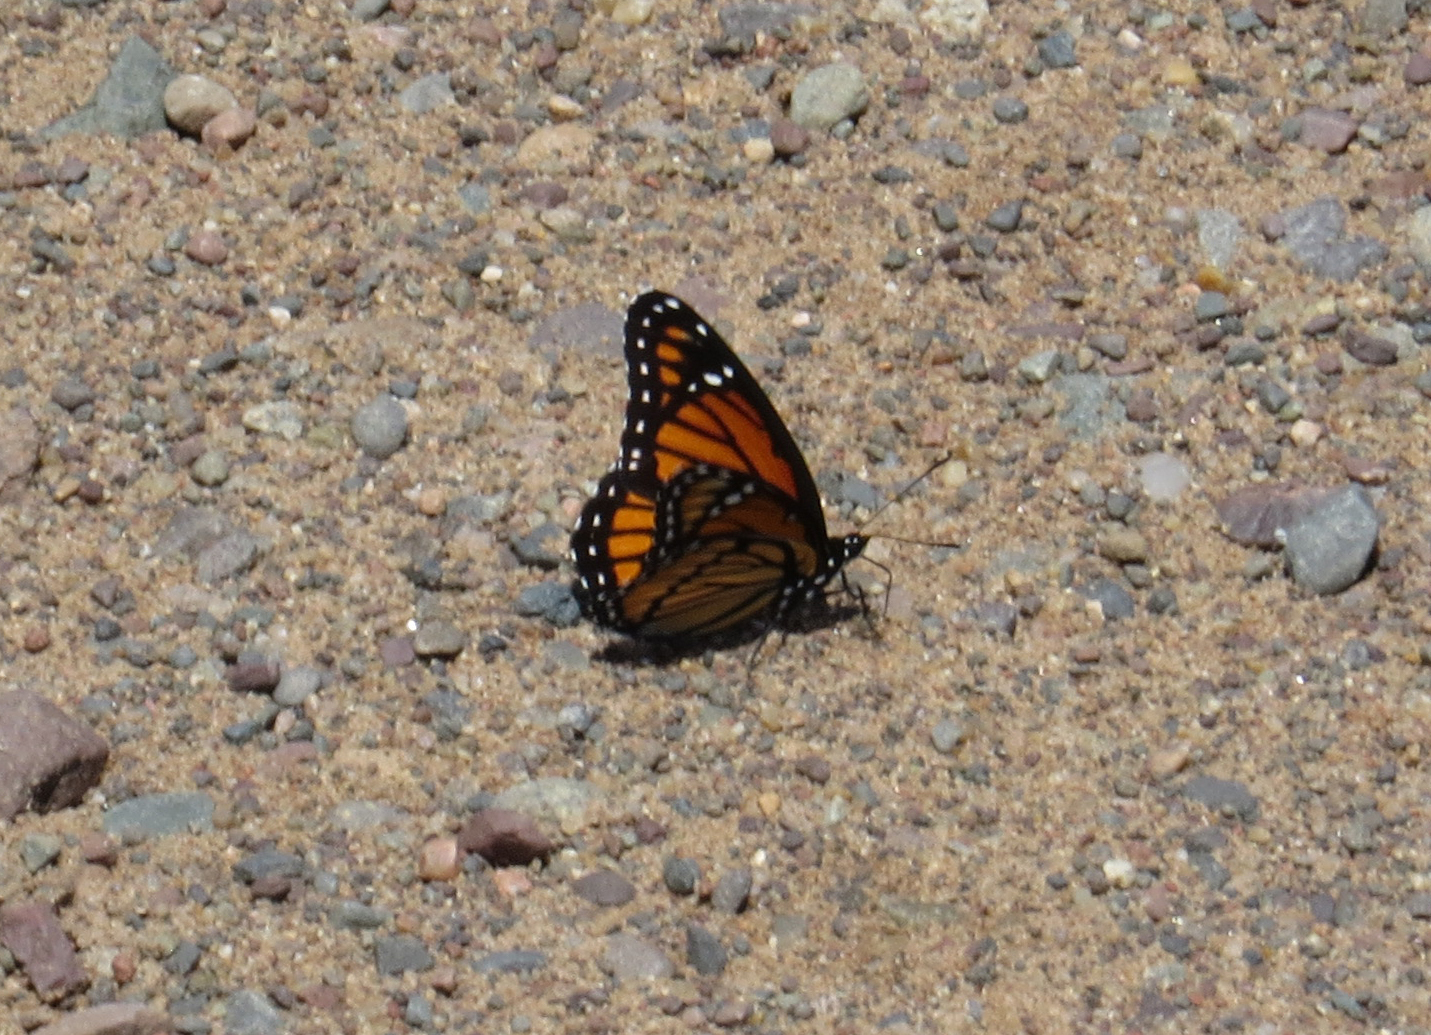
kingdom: Animalia
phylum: Arthropoda
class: Insecta
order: Lepidoptera
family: Nymphalidae
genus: Limenitis
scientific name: Limenitis archippus
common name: Viceroy
